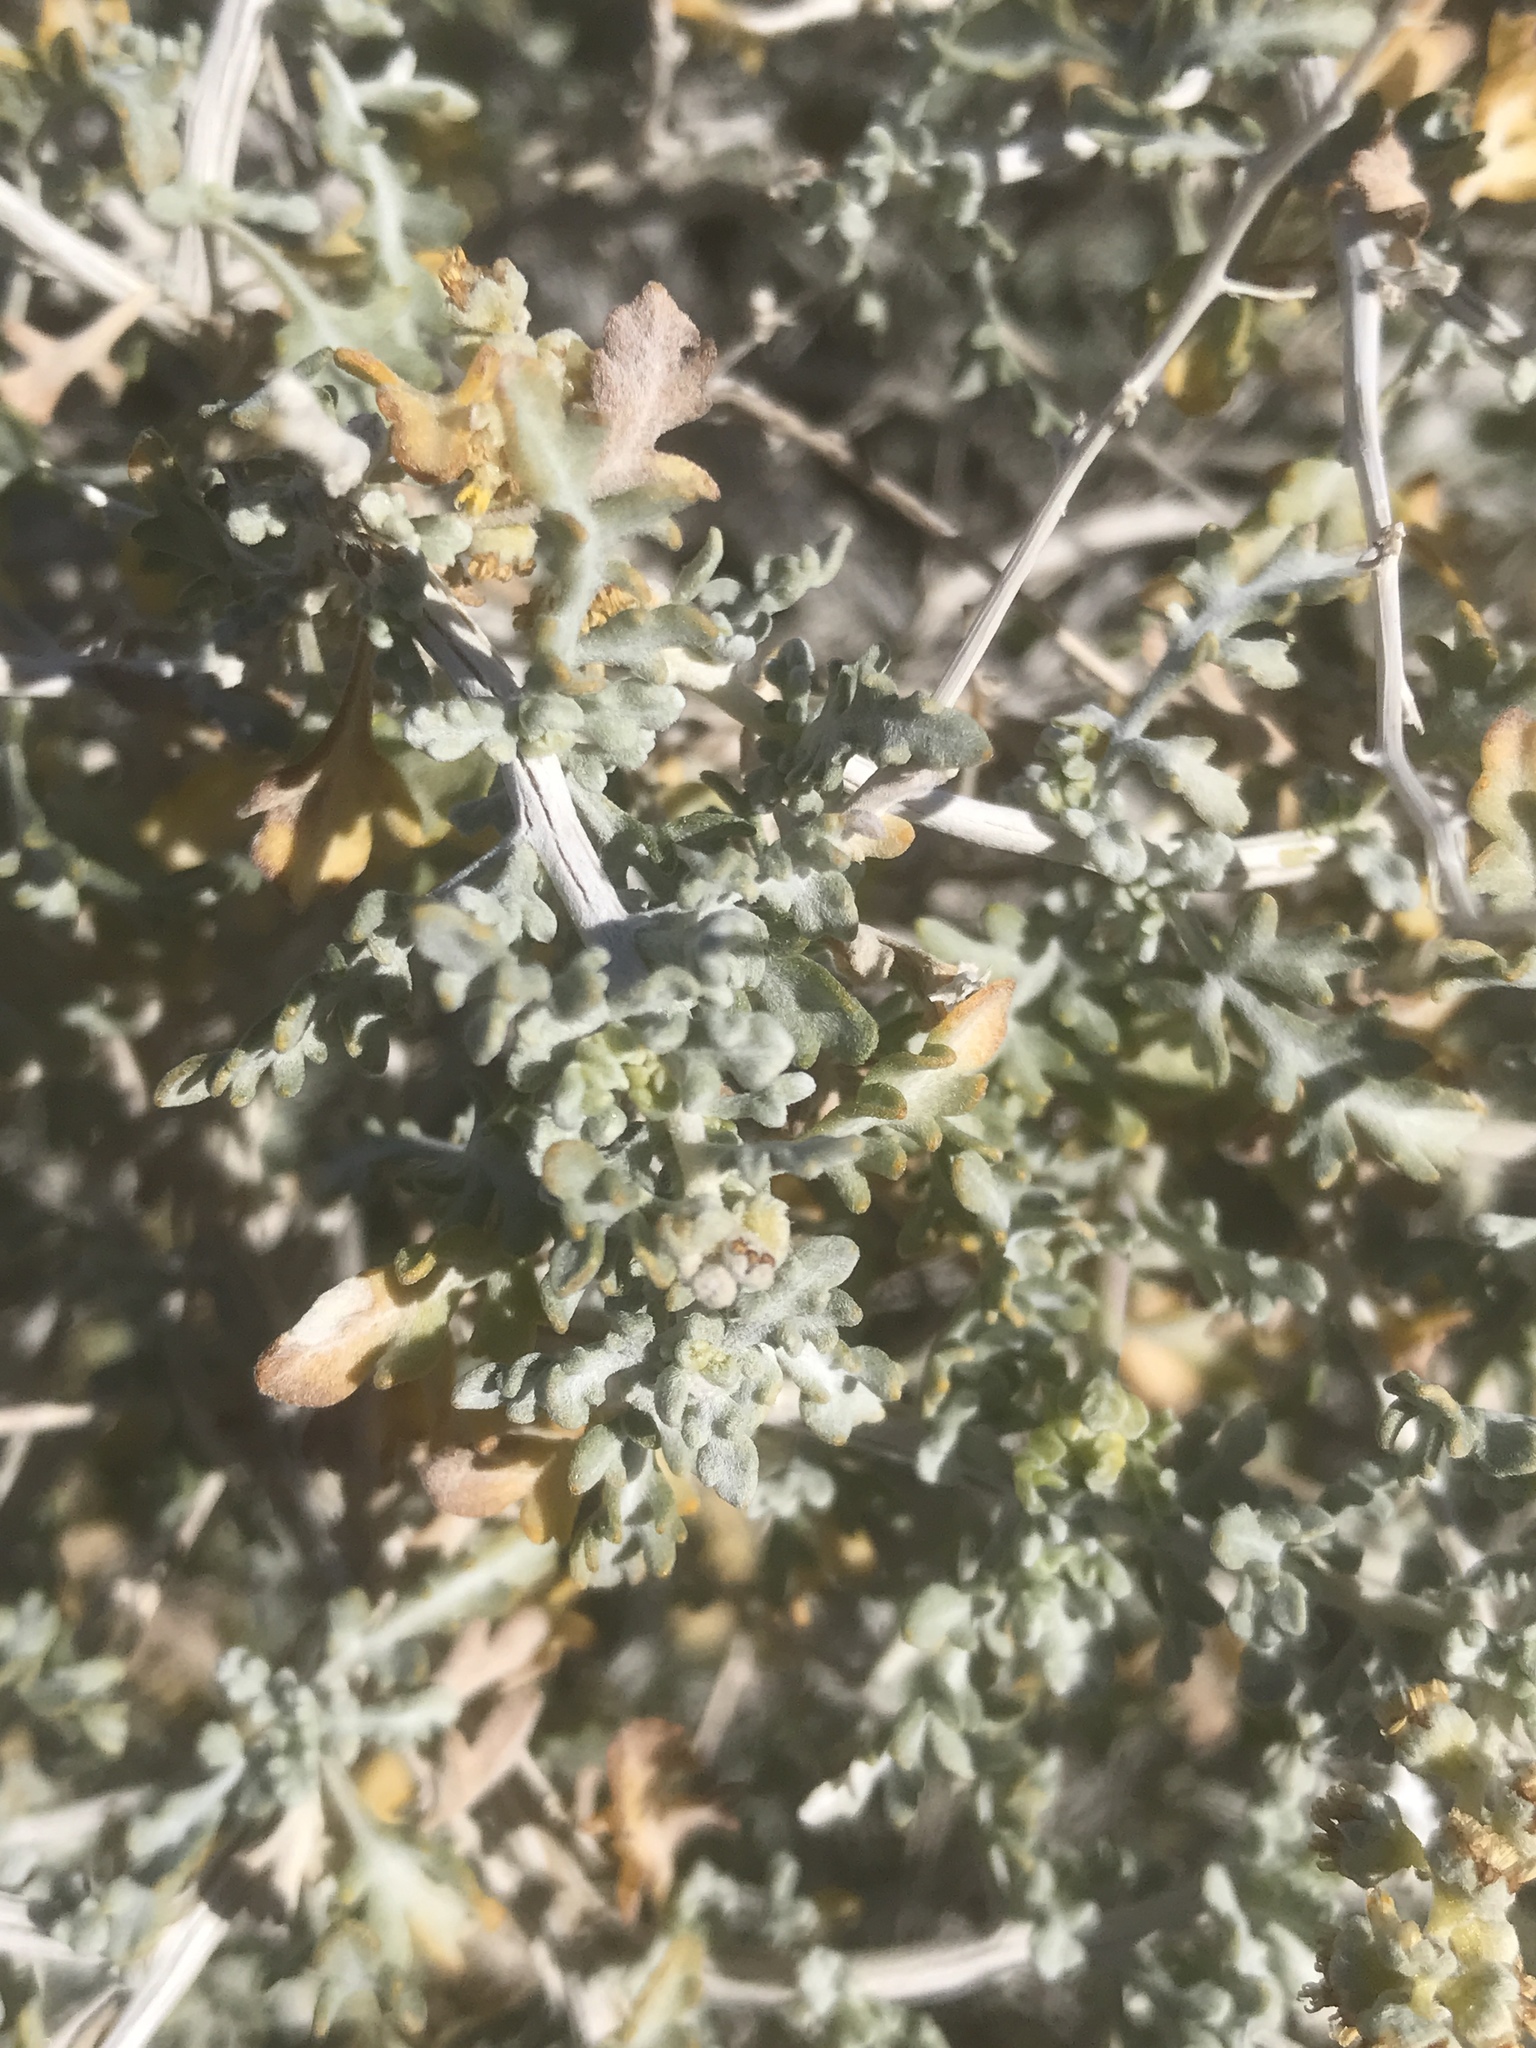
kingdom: Plantae
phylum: Tracheophyta
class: Magnoliopsida
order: Asterales
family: Asteraceae
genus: Ambrosia
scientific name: Ambrosia dumosa
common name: Bur-sage
